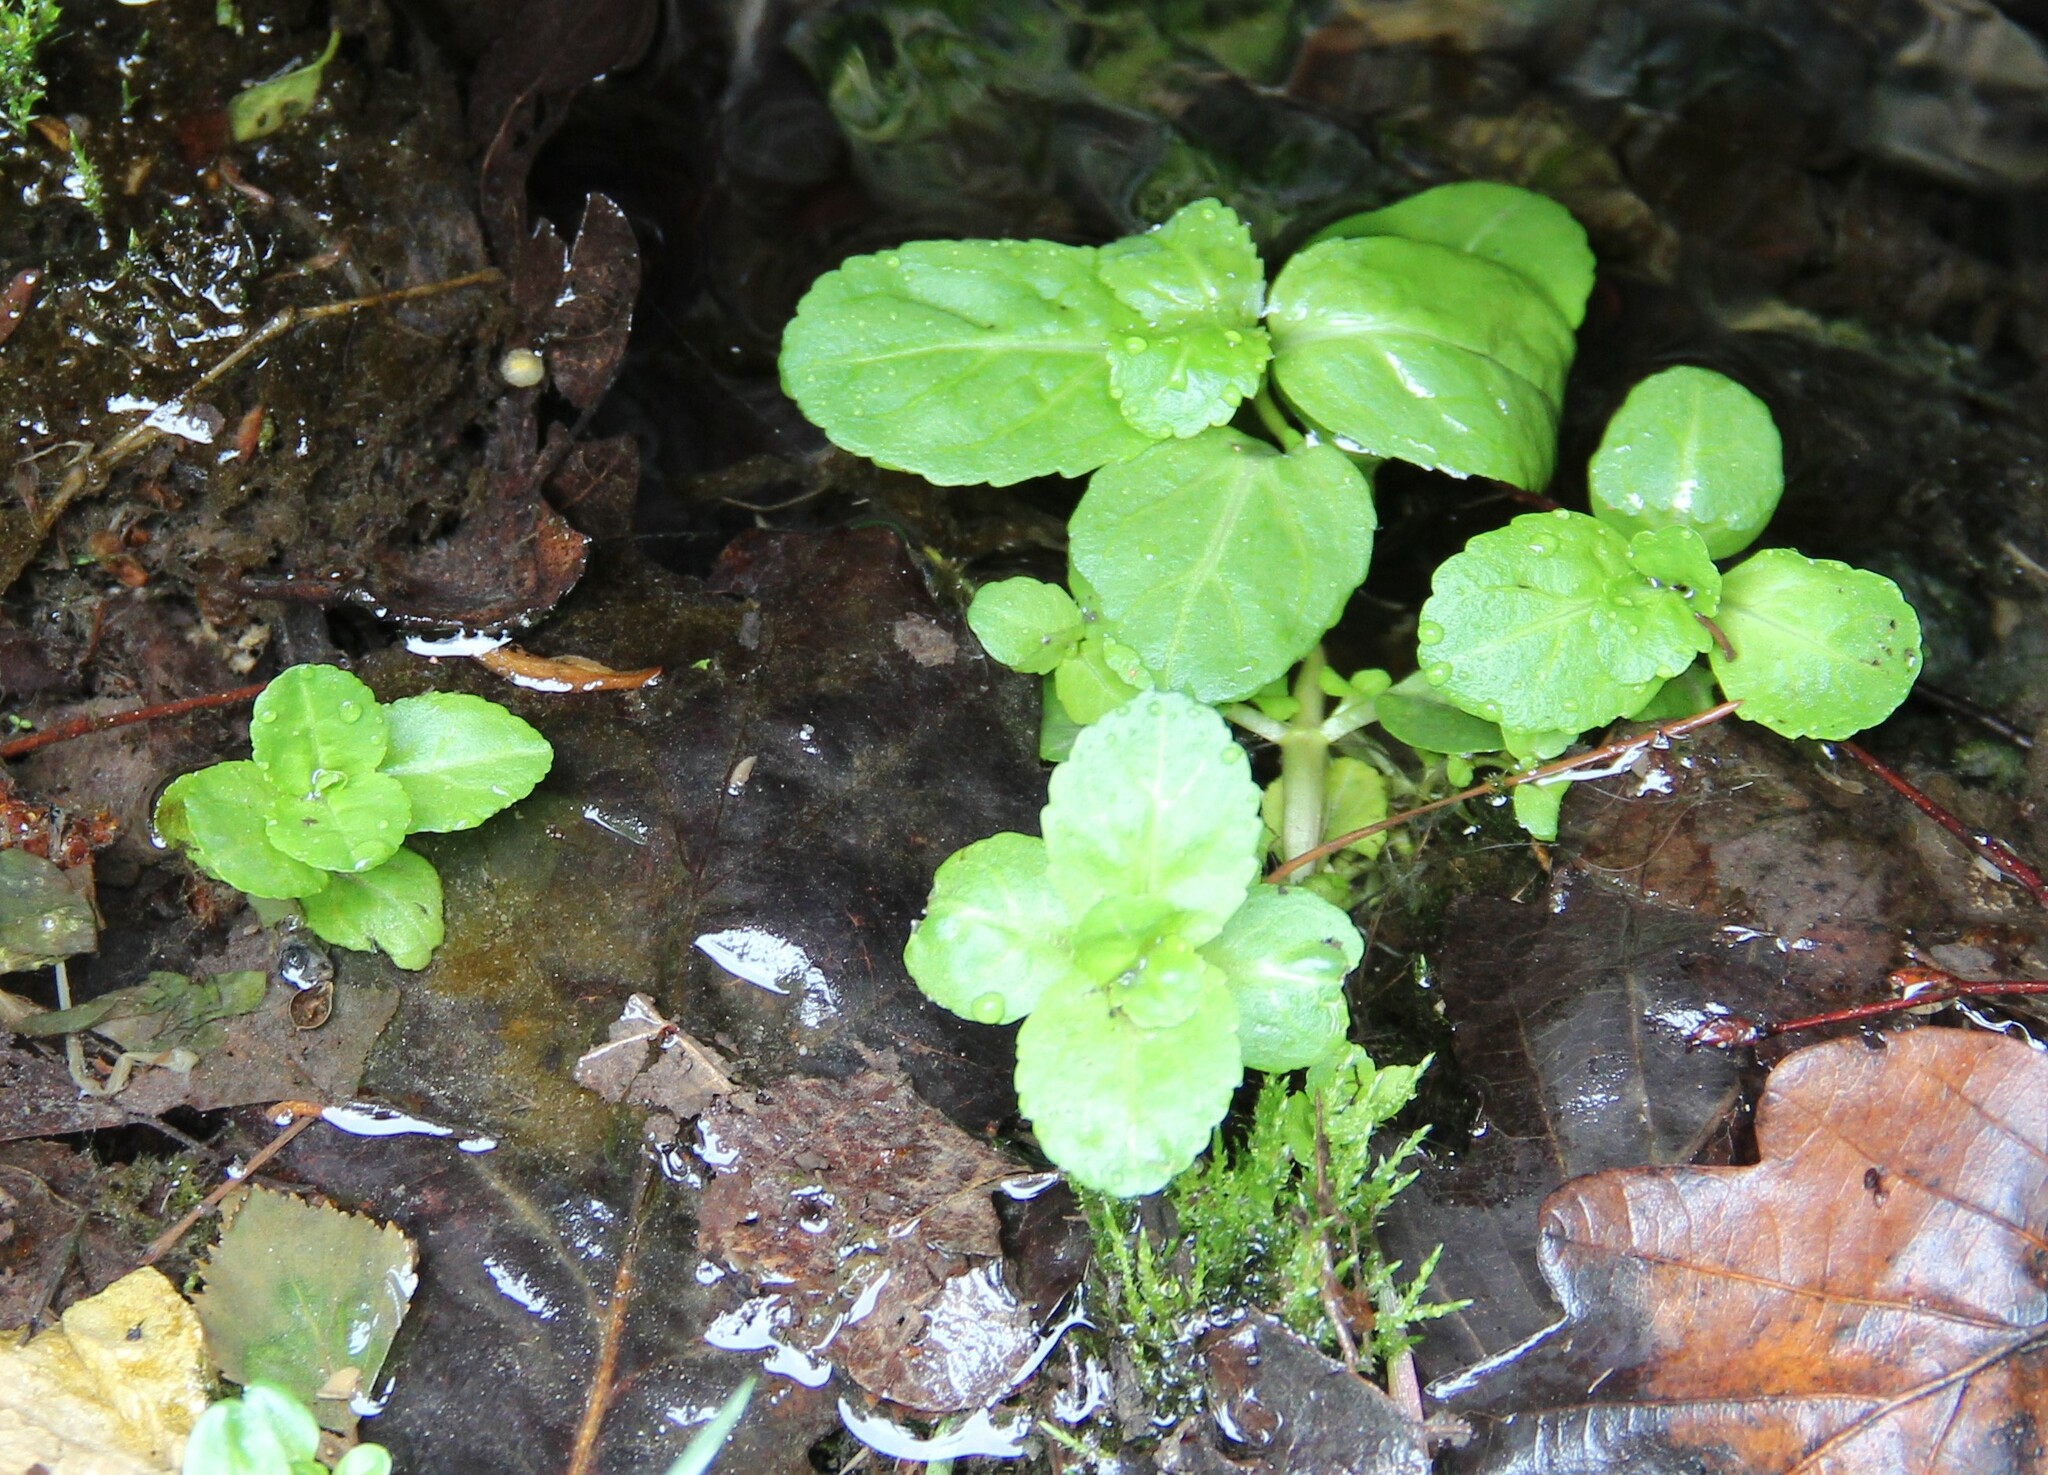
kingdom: Plantae
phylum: Tracheophyta
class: Magnoliopsida
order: Lamiales
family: Plantaginaceae
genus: Veronica
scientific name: Veronica beccabunga
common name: Brooklime
